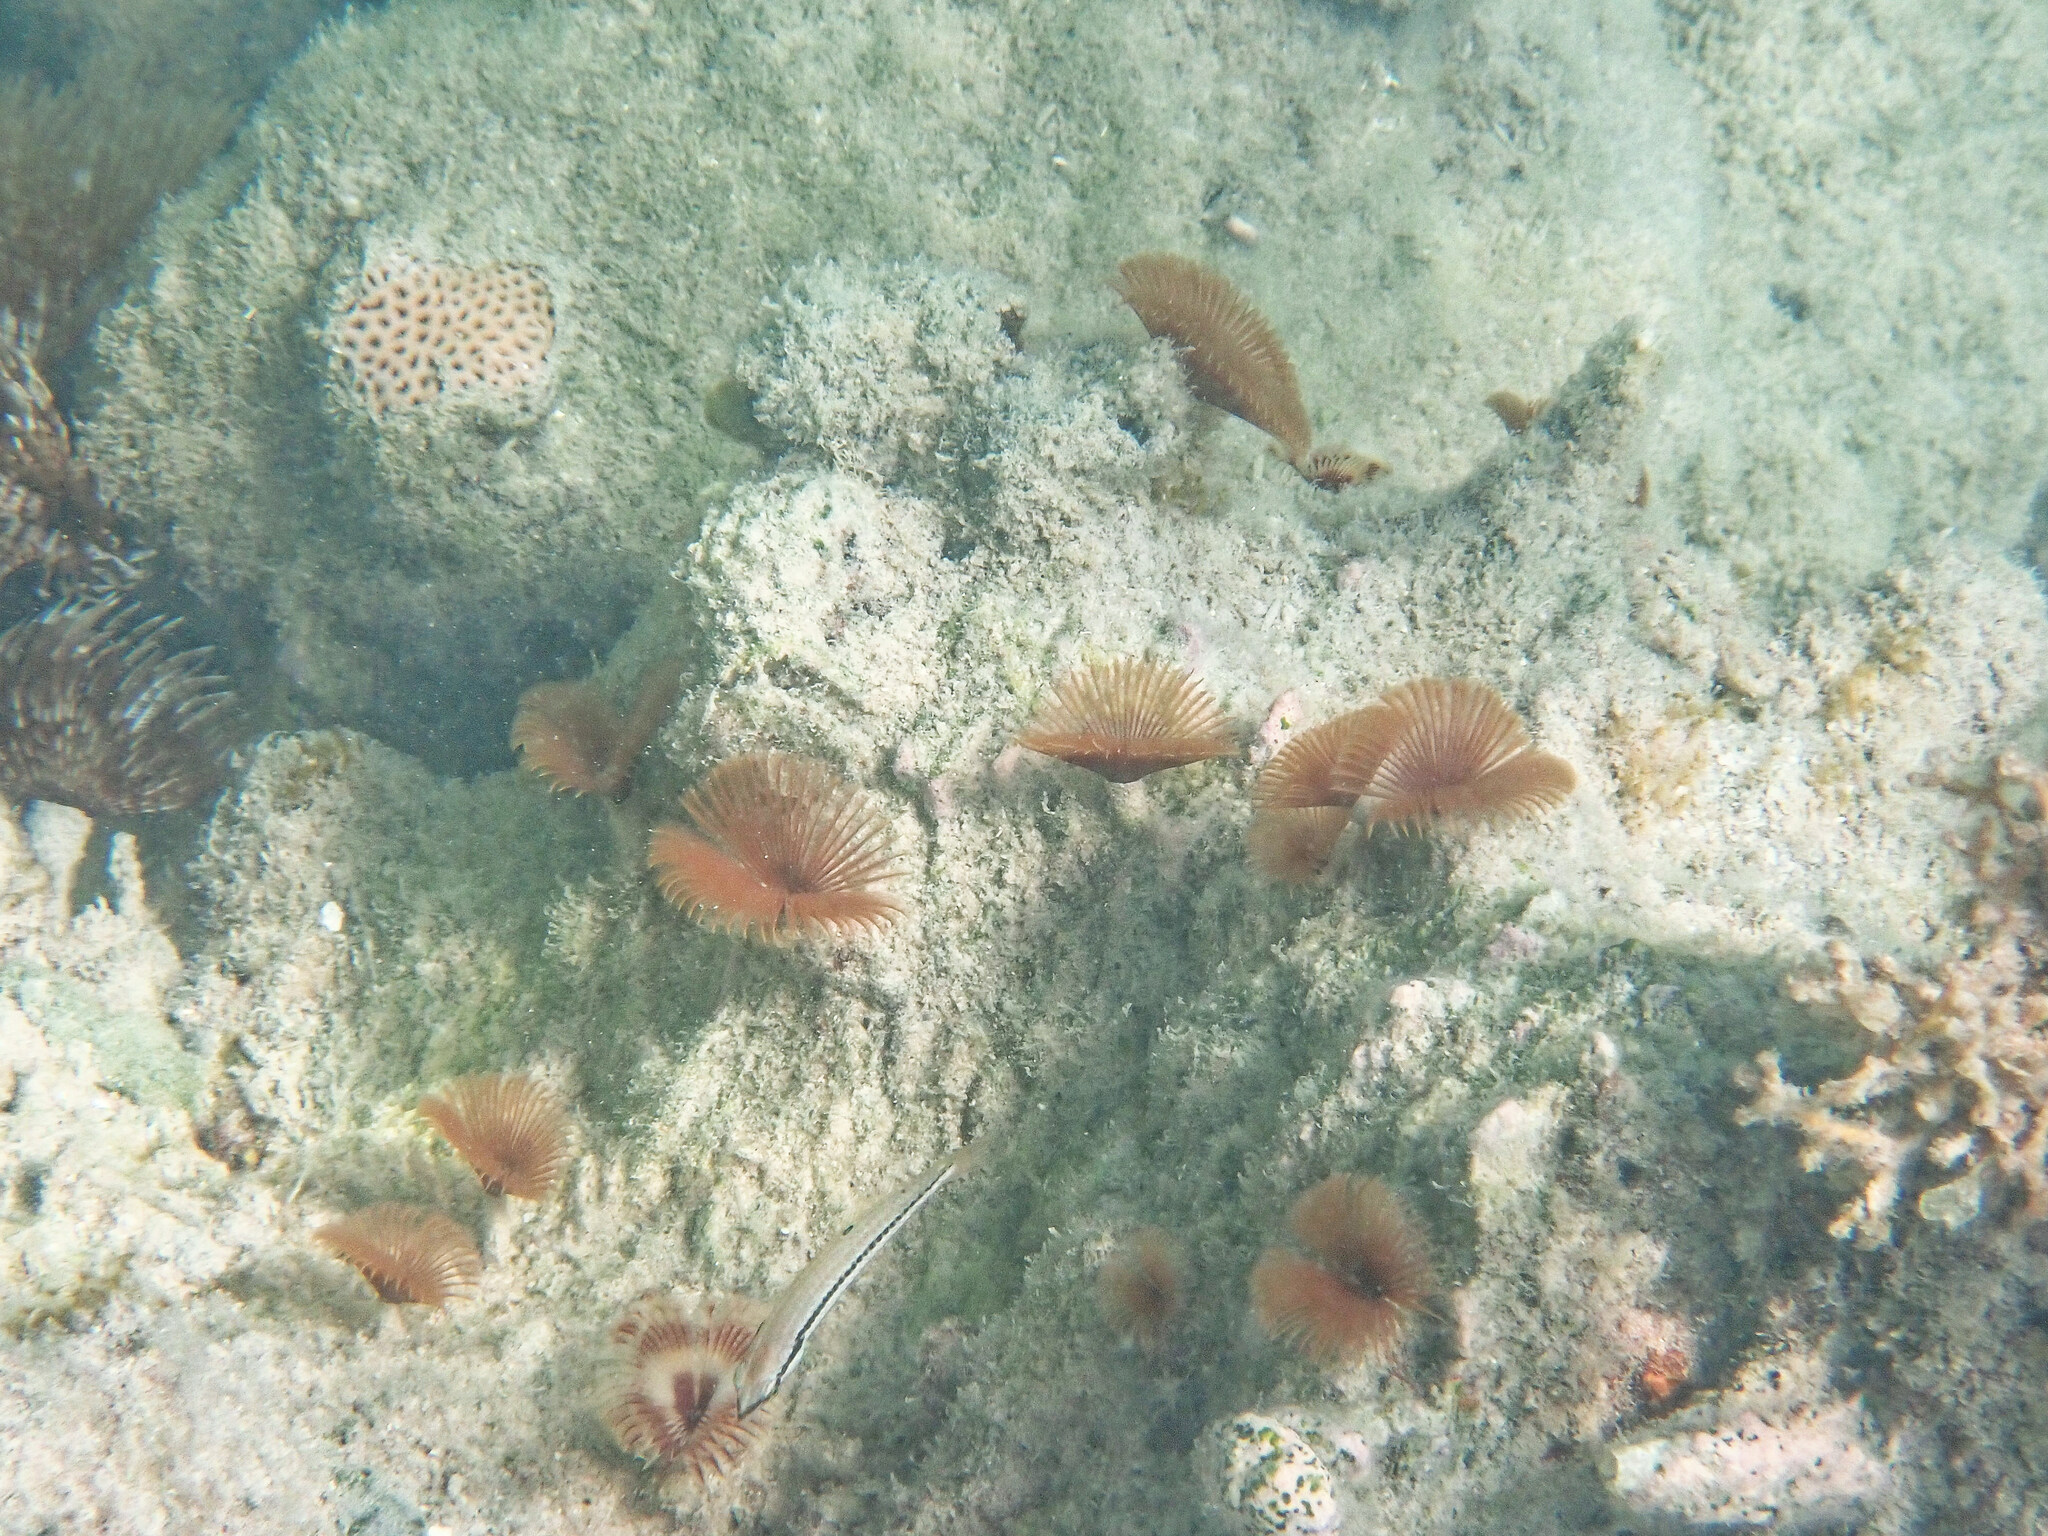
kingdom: Animalia
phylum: Annelida
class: Polychaeta
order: Sabellida
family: Sabellidae
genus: Anamobaea
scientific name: Anamobaea orstedii
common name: Split-crown feather duster
